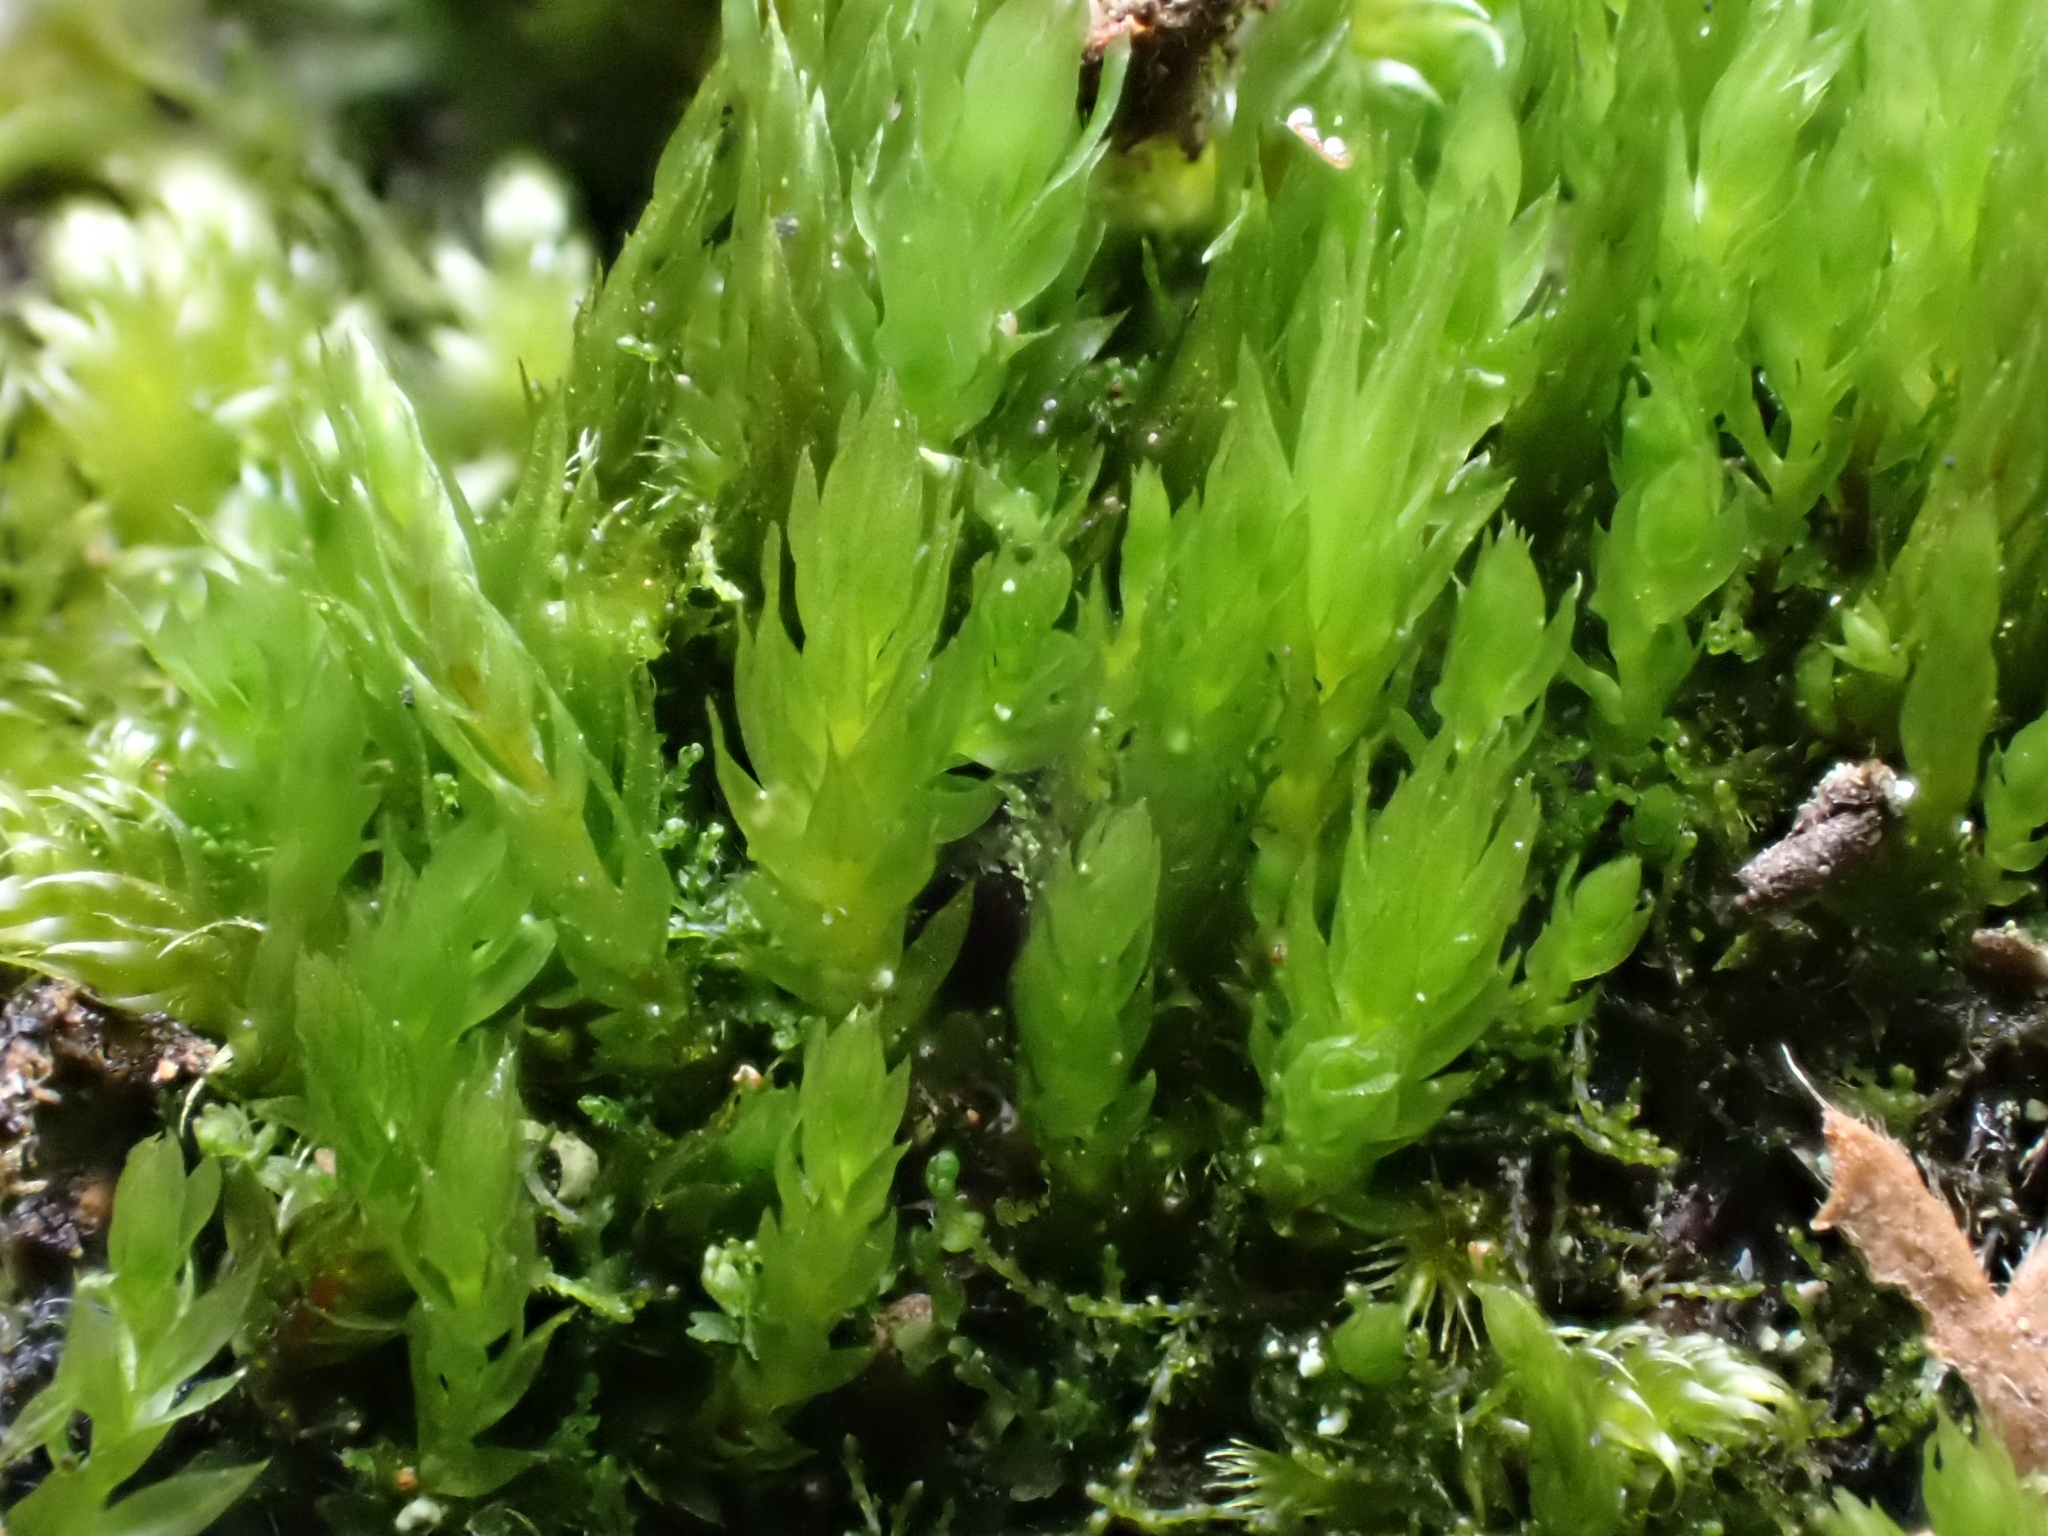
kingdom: Plantae
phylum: Bryophyta
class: Bryopsida
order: Bryales
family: Mniaceae
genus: Pohlia
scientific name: Pohlia nutans
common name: Nodding thread-moss
